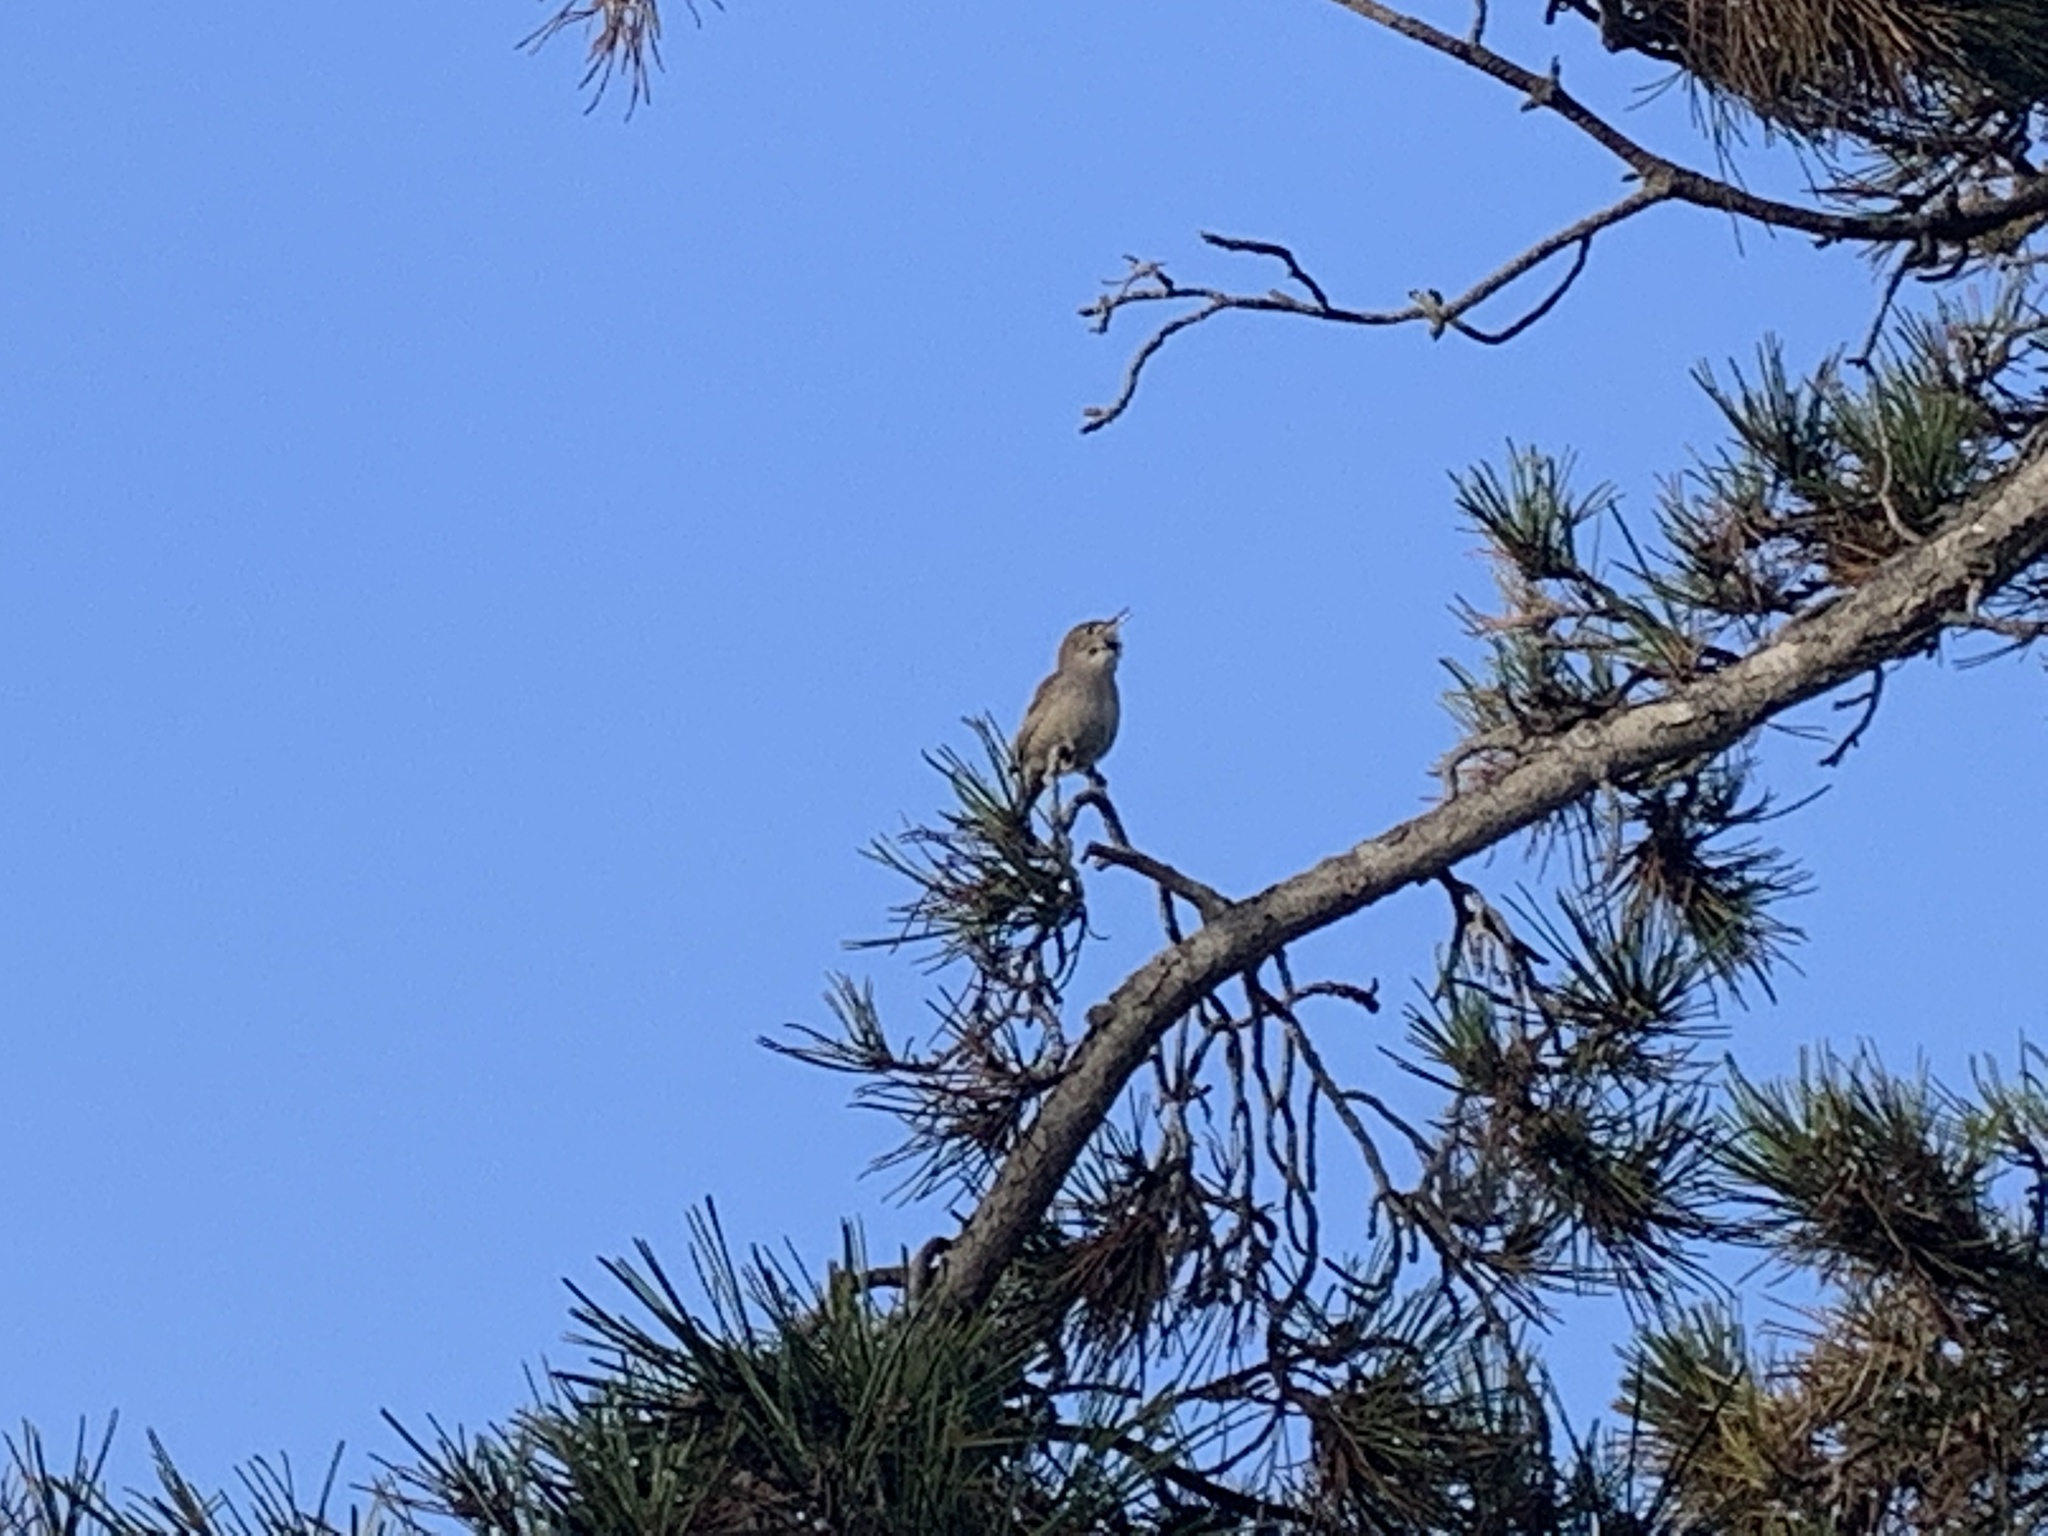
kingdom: Animalia
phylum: Chordata
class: Aves
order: Passeriformes
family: Troglodytidae
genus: Troglodytes
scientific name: Troglodytes aedon
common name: House wren
